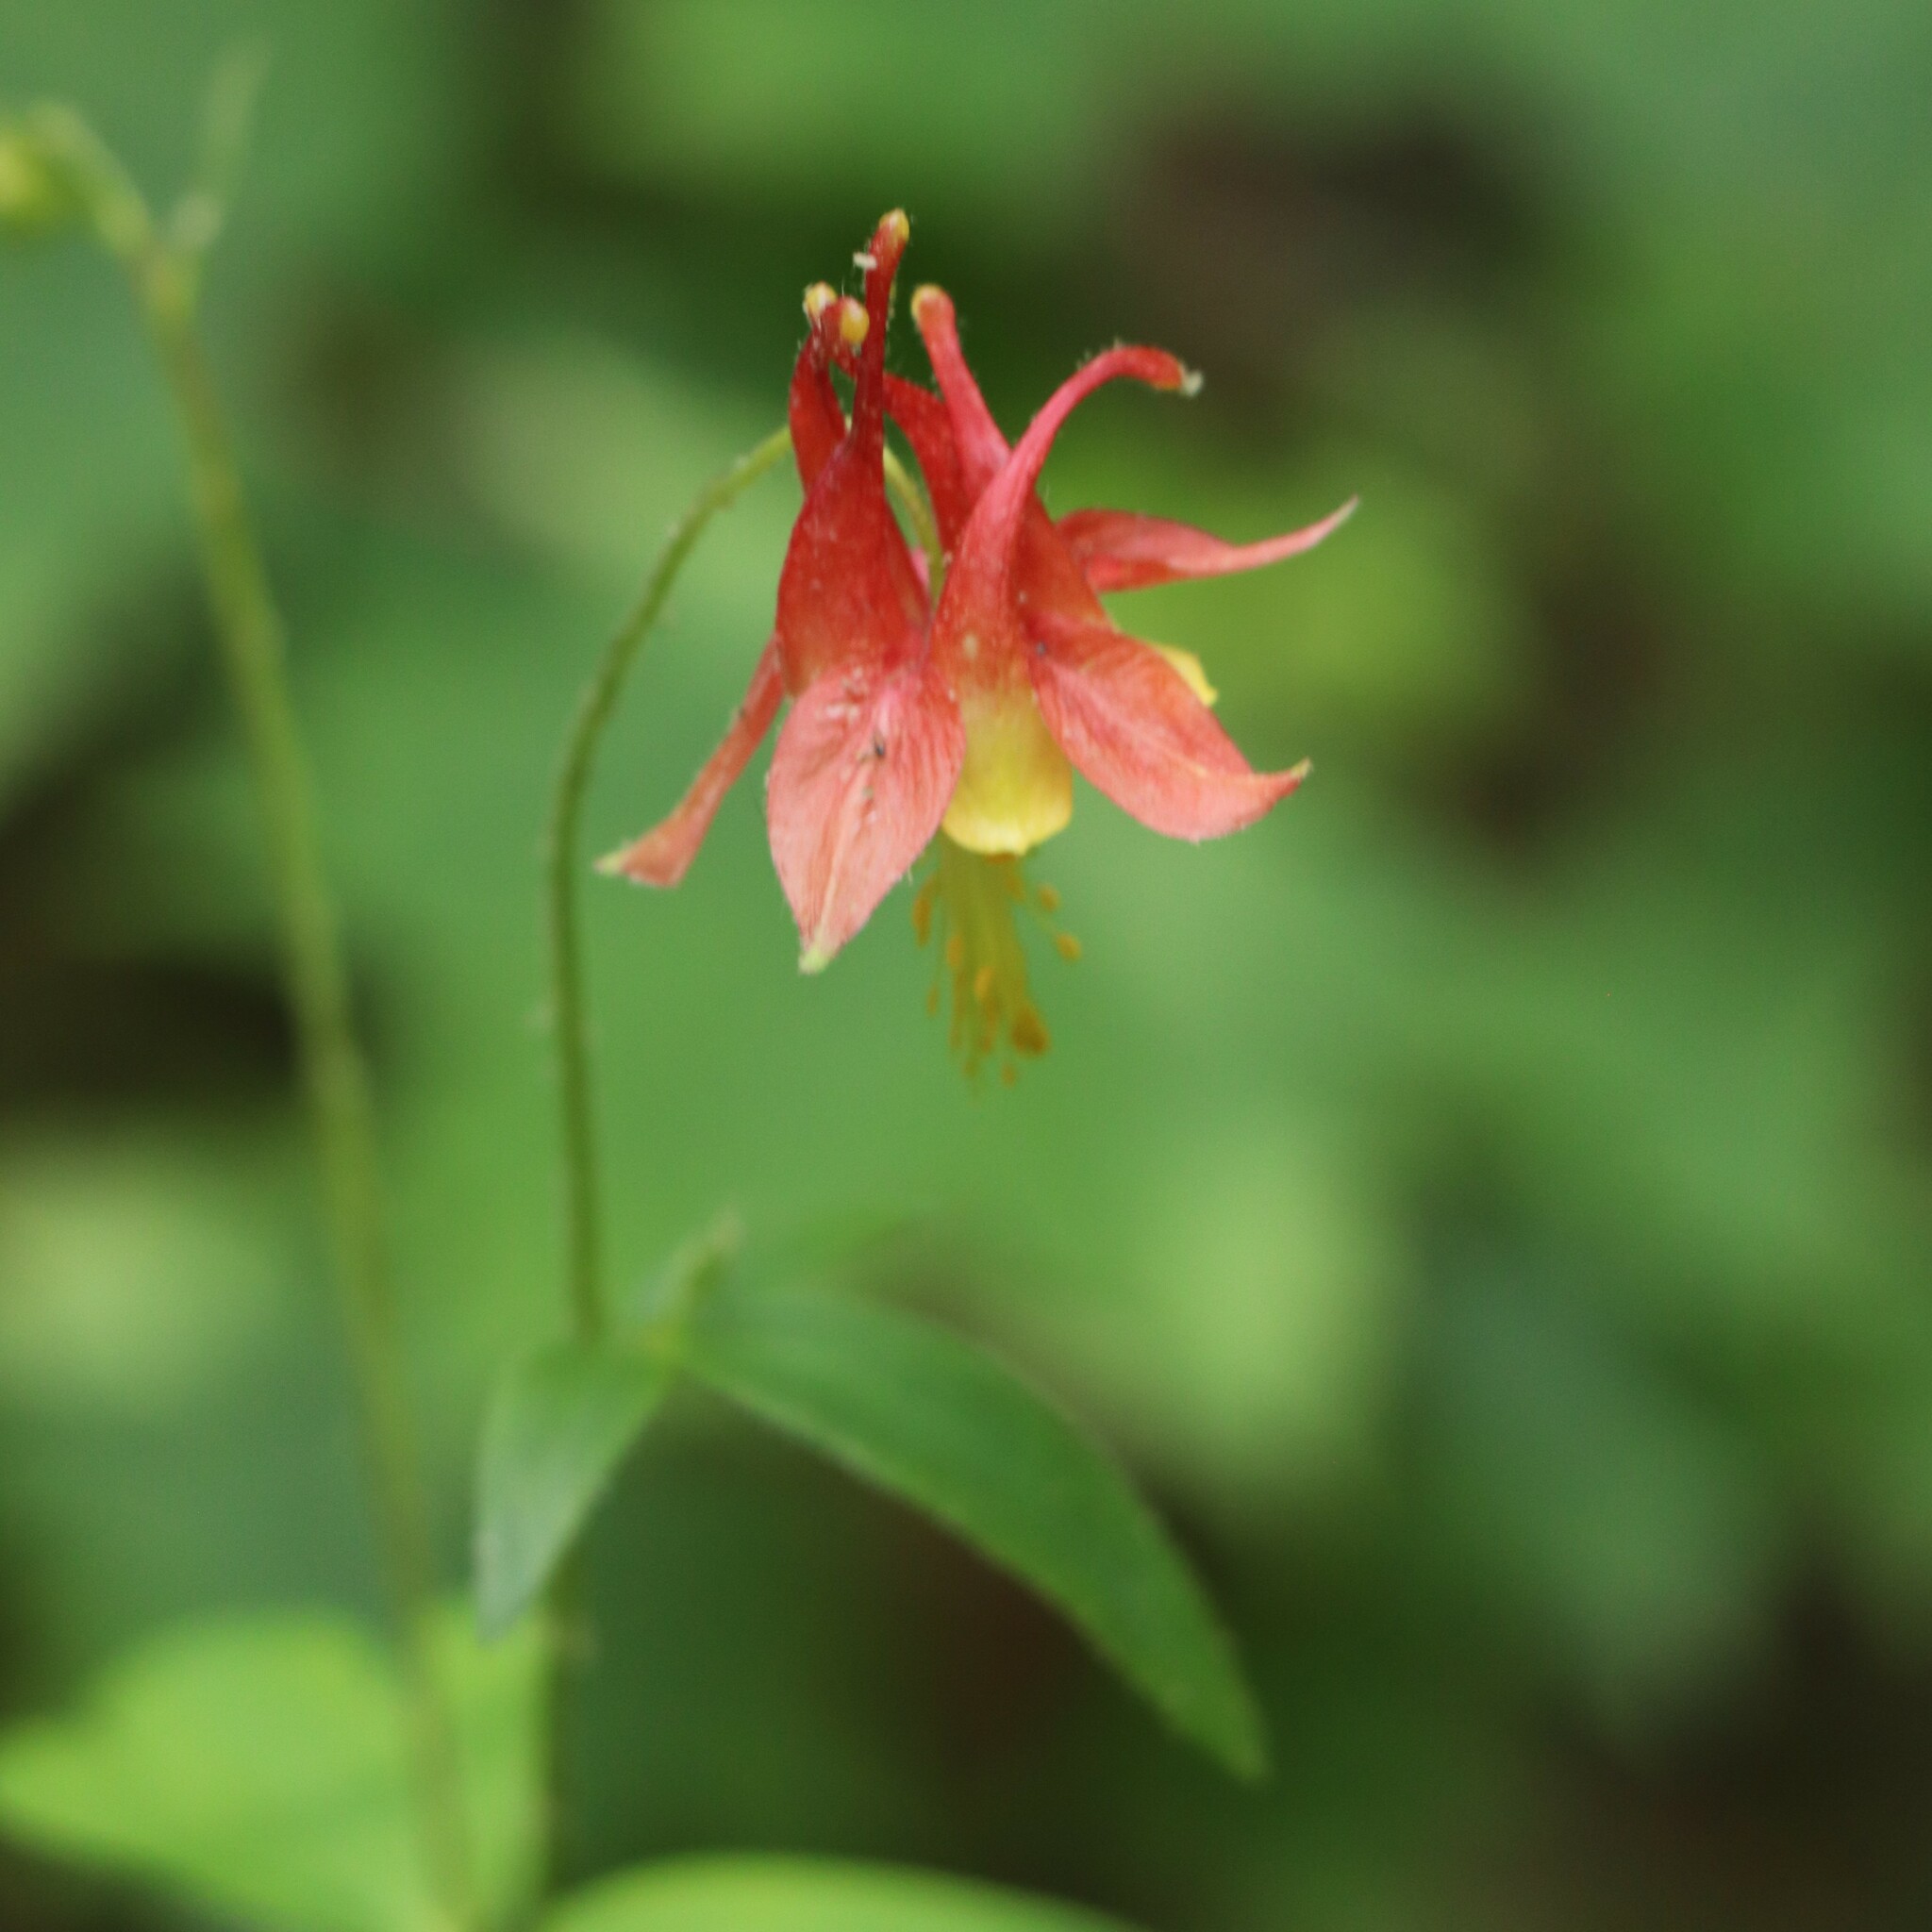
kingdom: Plantae
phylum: Tracheophyta
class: Magnoliopsida
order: Ranunculales
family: Ranunculaceae
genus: Aquilegia
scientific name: Aquilegia canadensis
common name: American columbine
